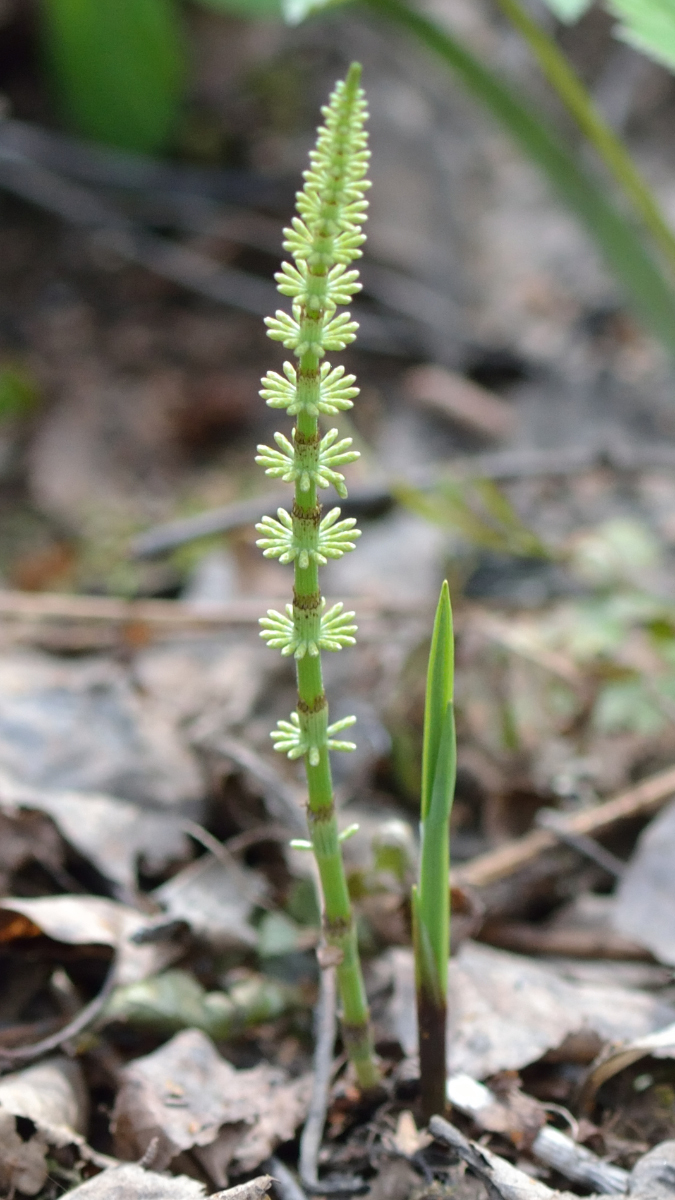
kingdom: Plantae
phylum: Tracheophyta
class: Polypodiopsida
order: Equisetales
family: Equisetaceae
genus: Equisetum
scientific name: Equisetum pratense
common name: Meadow horsetail
